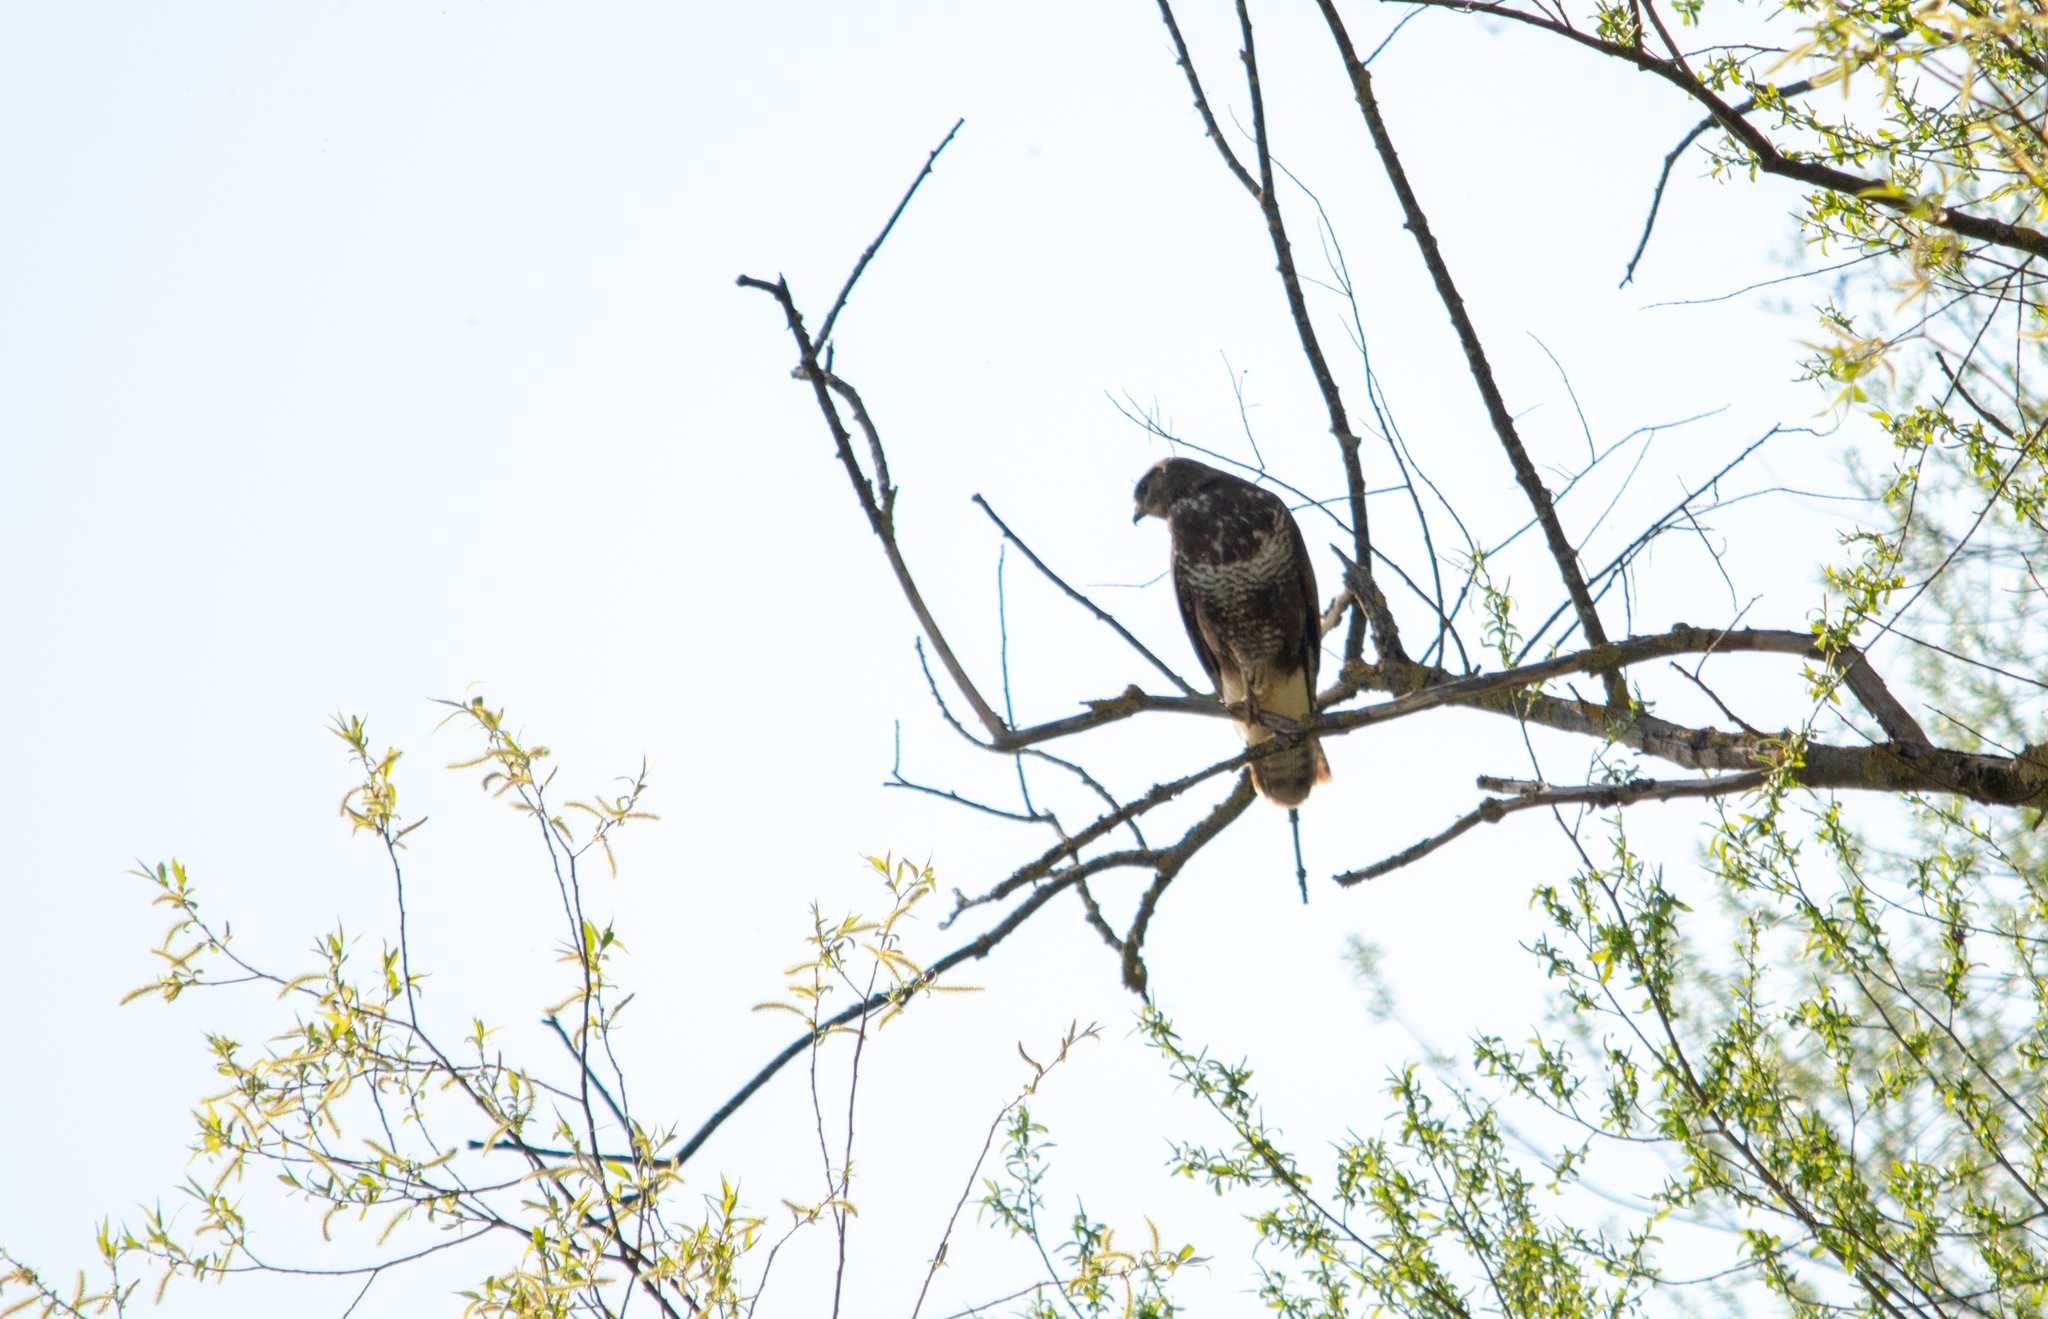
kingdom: Animalia
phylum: Chordata
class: Aves
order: Accipitriformes
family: Accipitridae
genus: Buteo
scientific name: Buteo buteo
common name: Common buzzard
